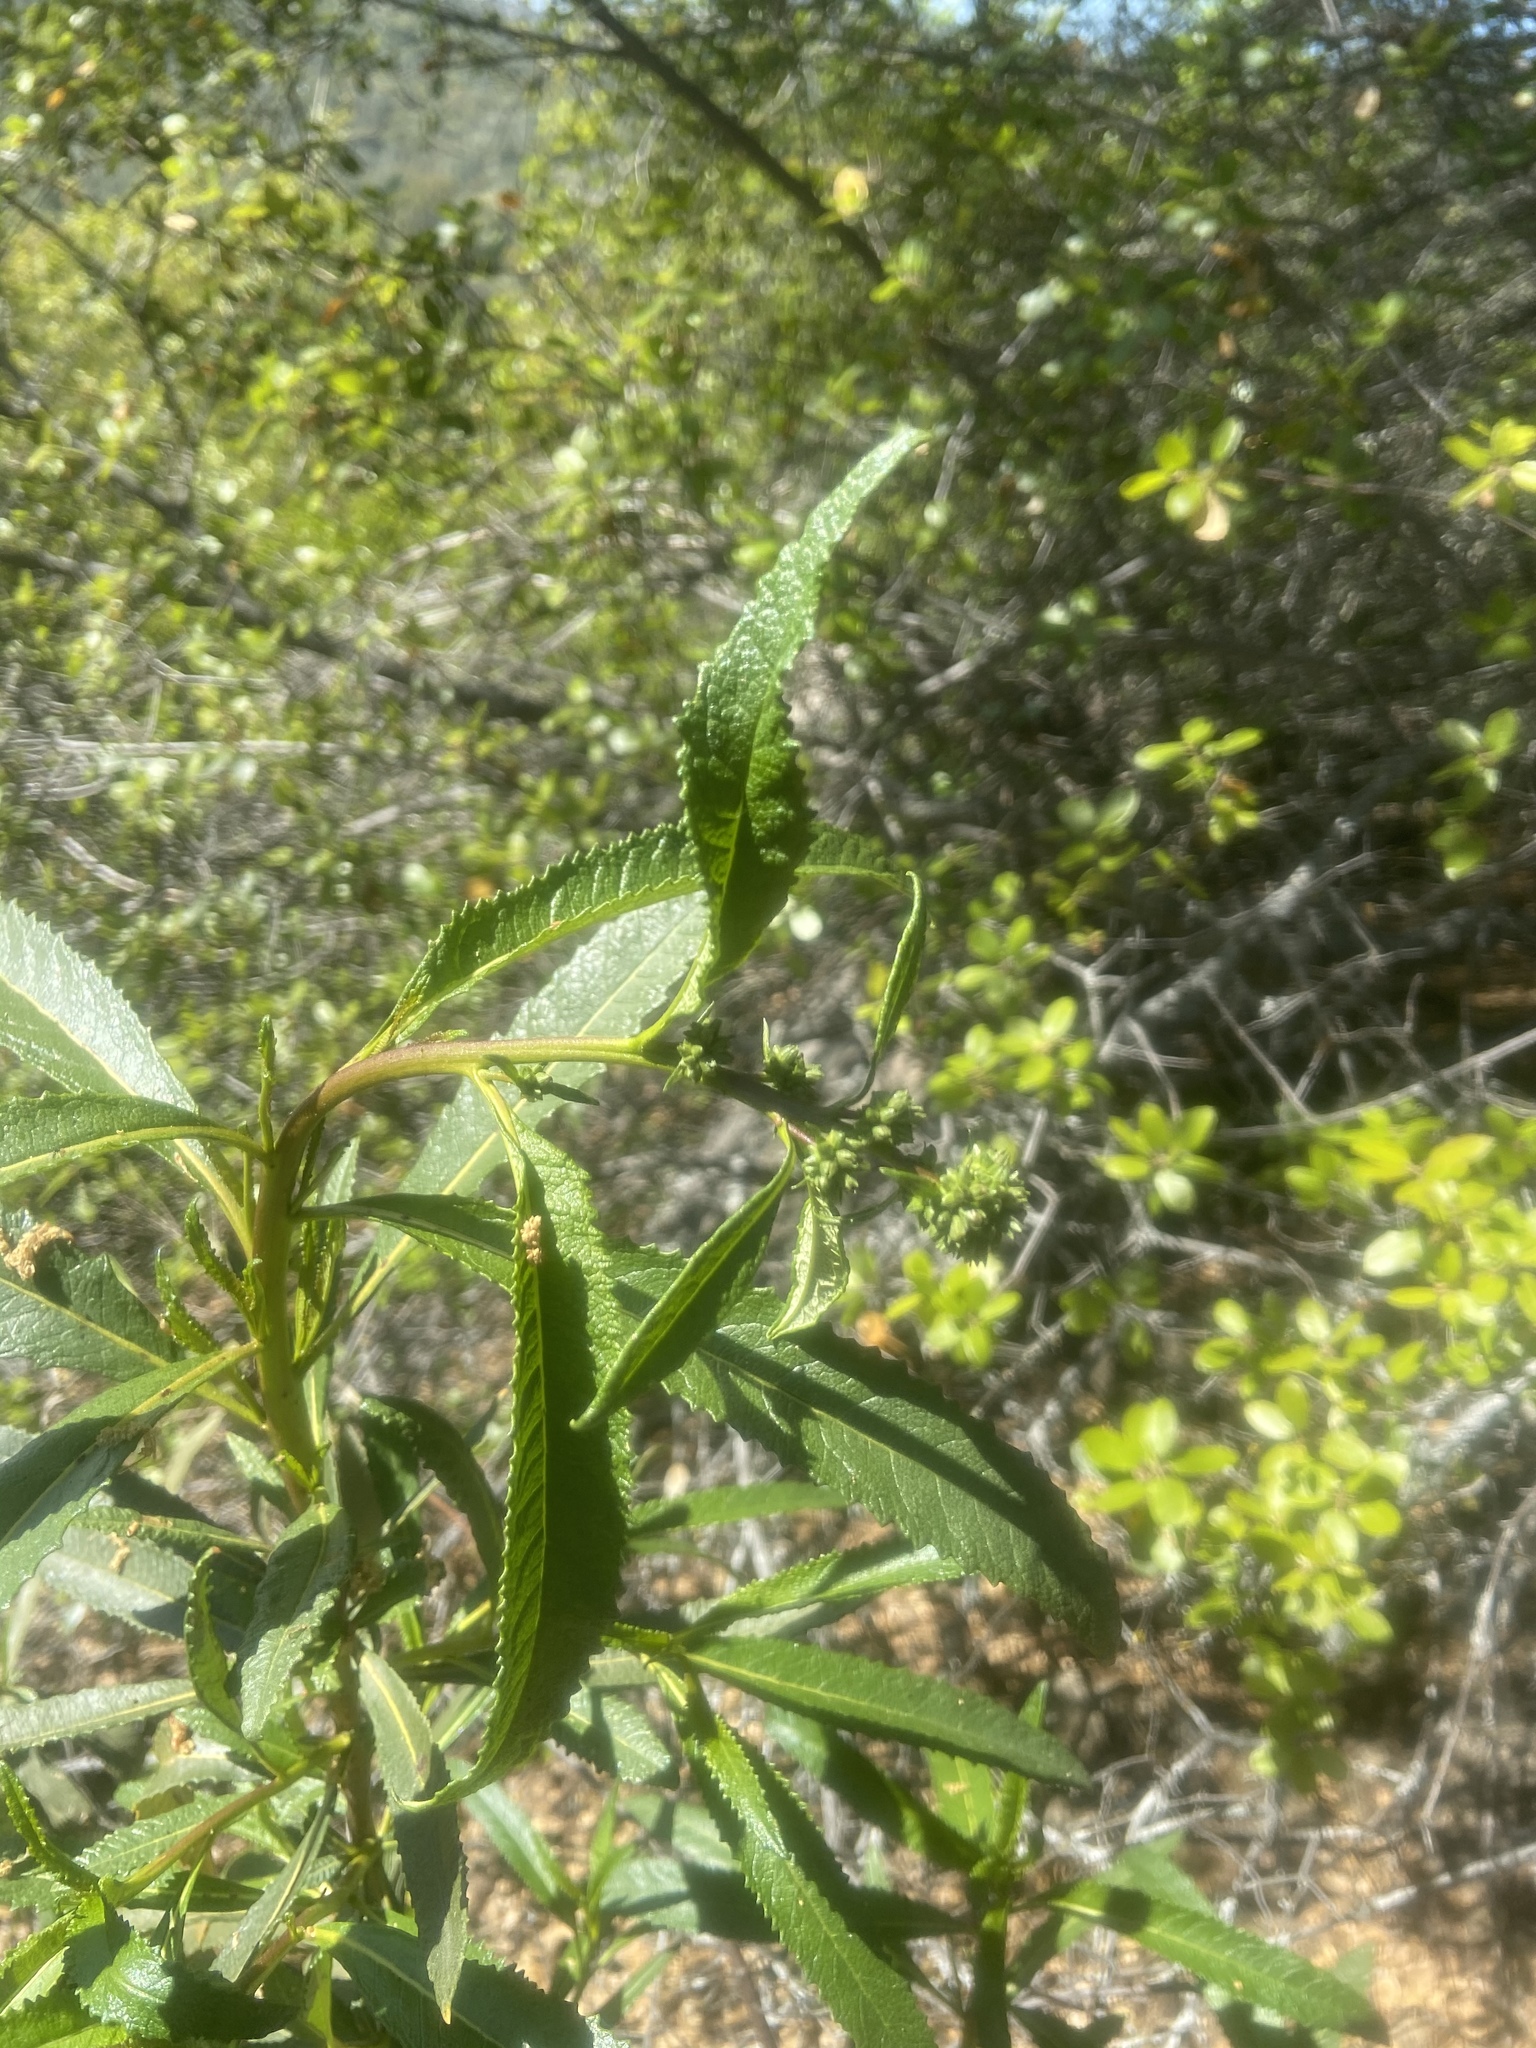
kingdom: Plantae
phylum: Tracheophyta
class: Magnoliopsida
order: Boraginales
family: Namaceae
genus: Eriodictyon
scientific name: Eriodictyon californicum
